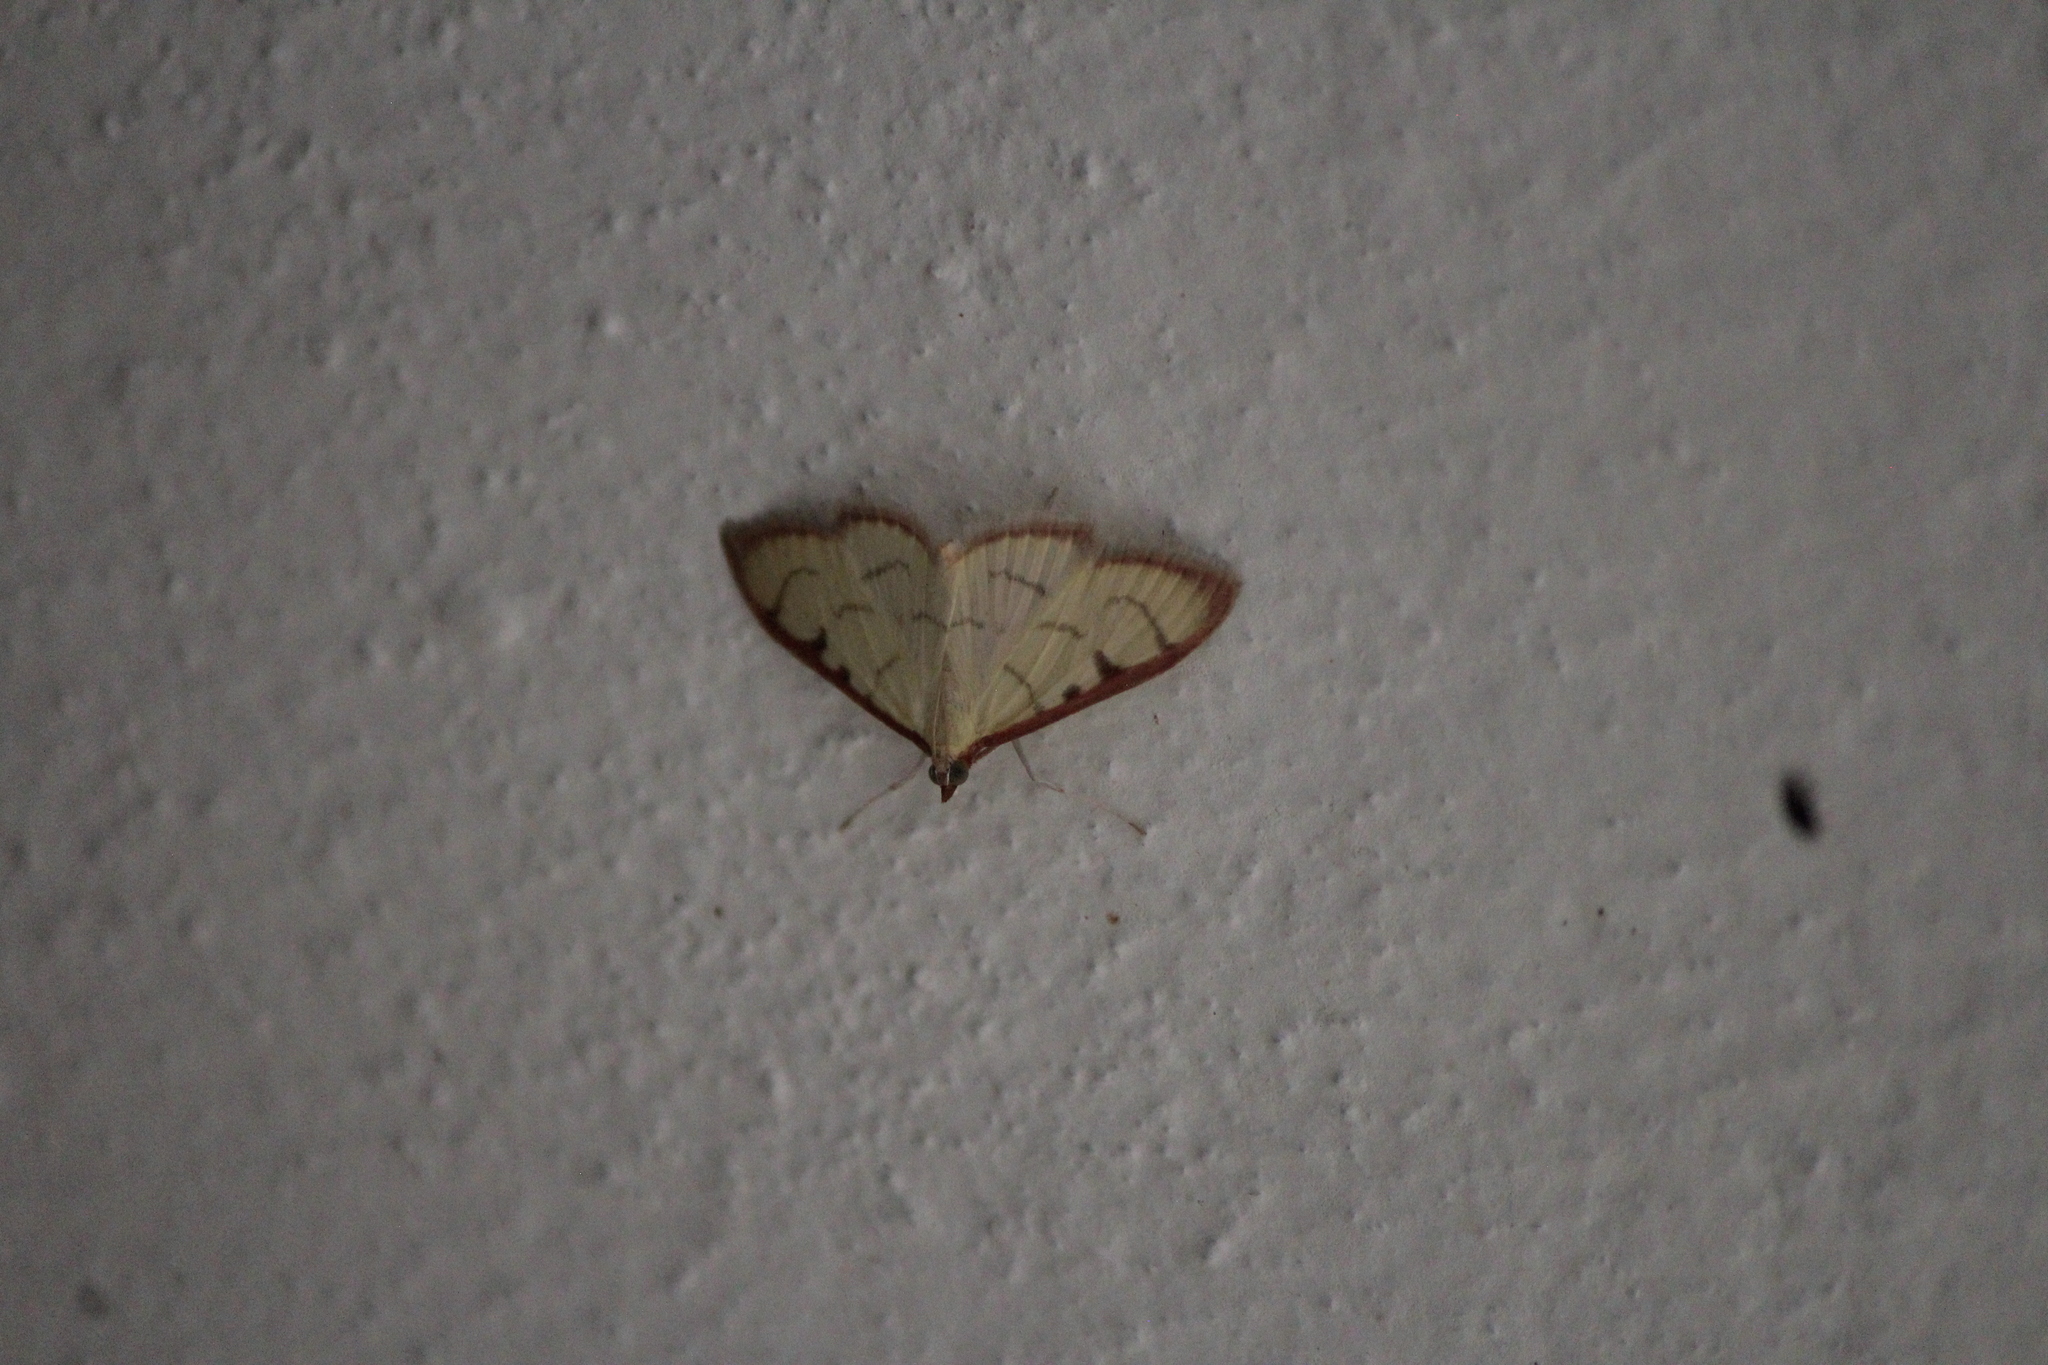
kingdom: Animalia
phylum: Arthropoda
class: Insecta
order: Lepidoptera
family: Crambidae
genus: Sarabotys
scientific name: Sarabotys
